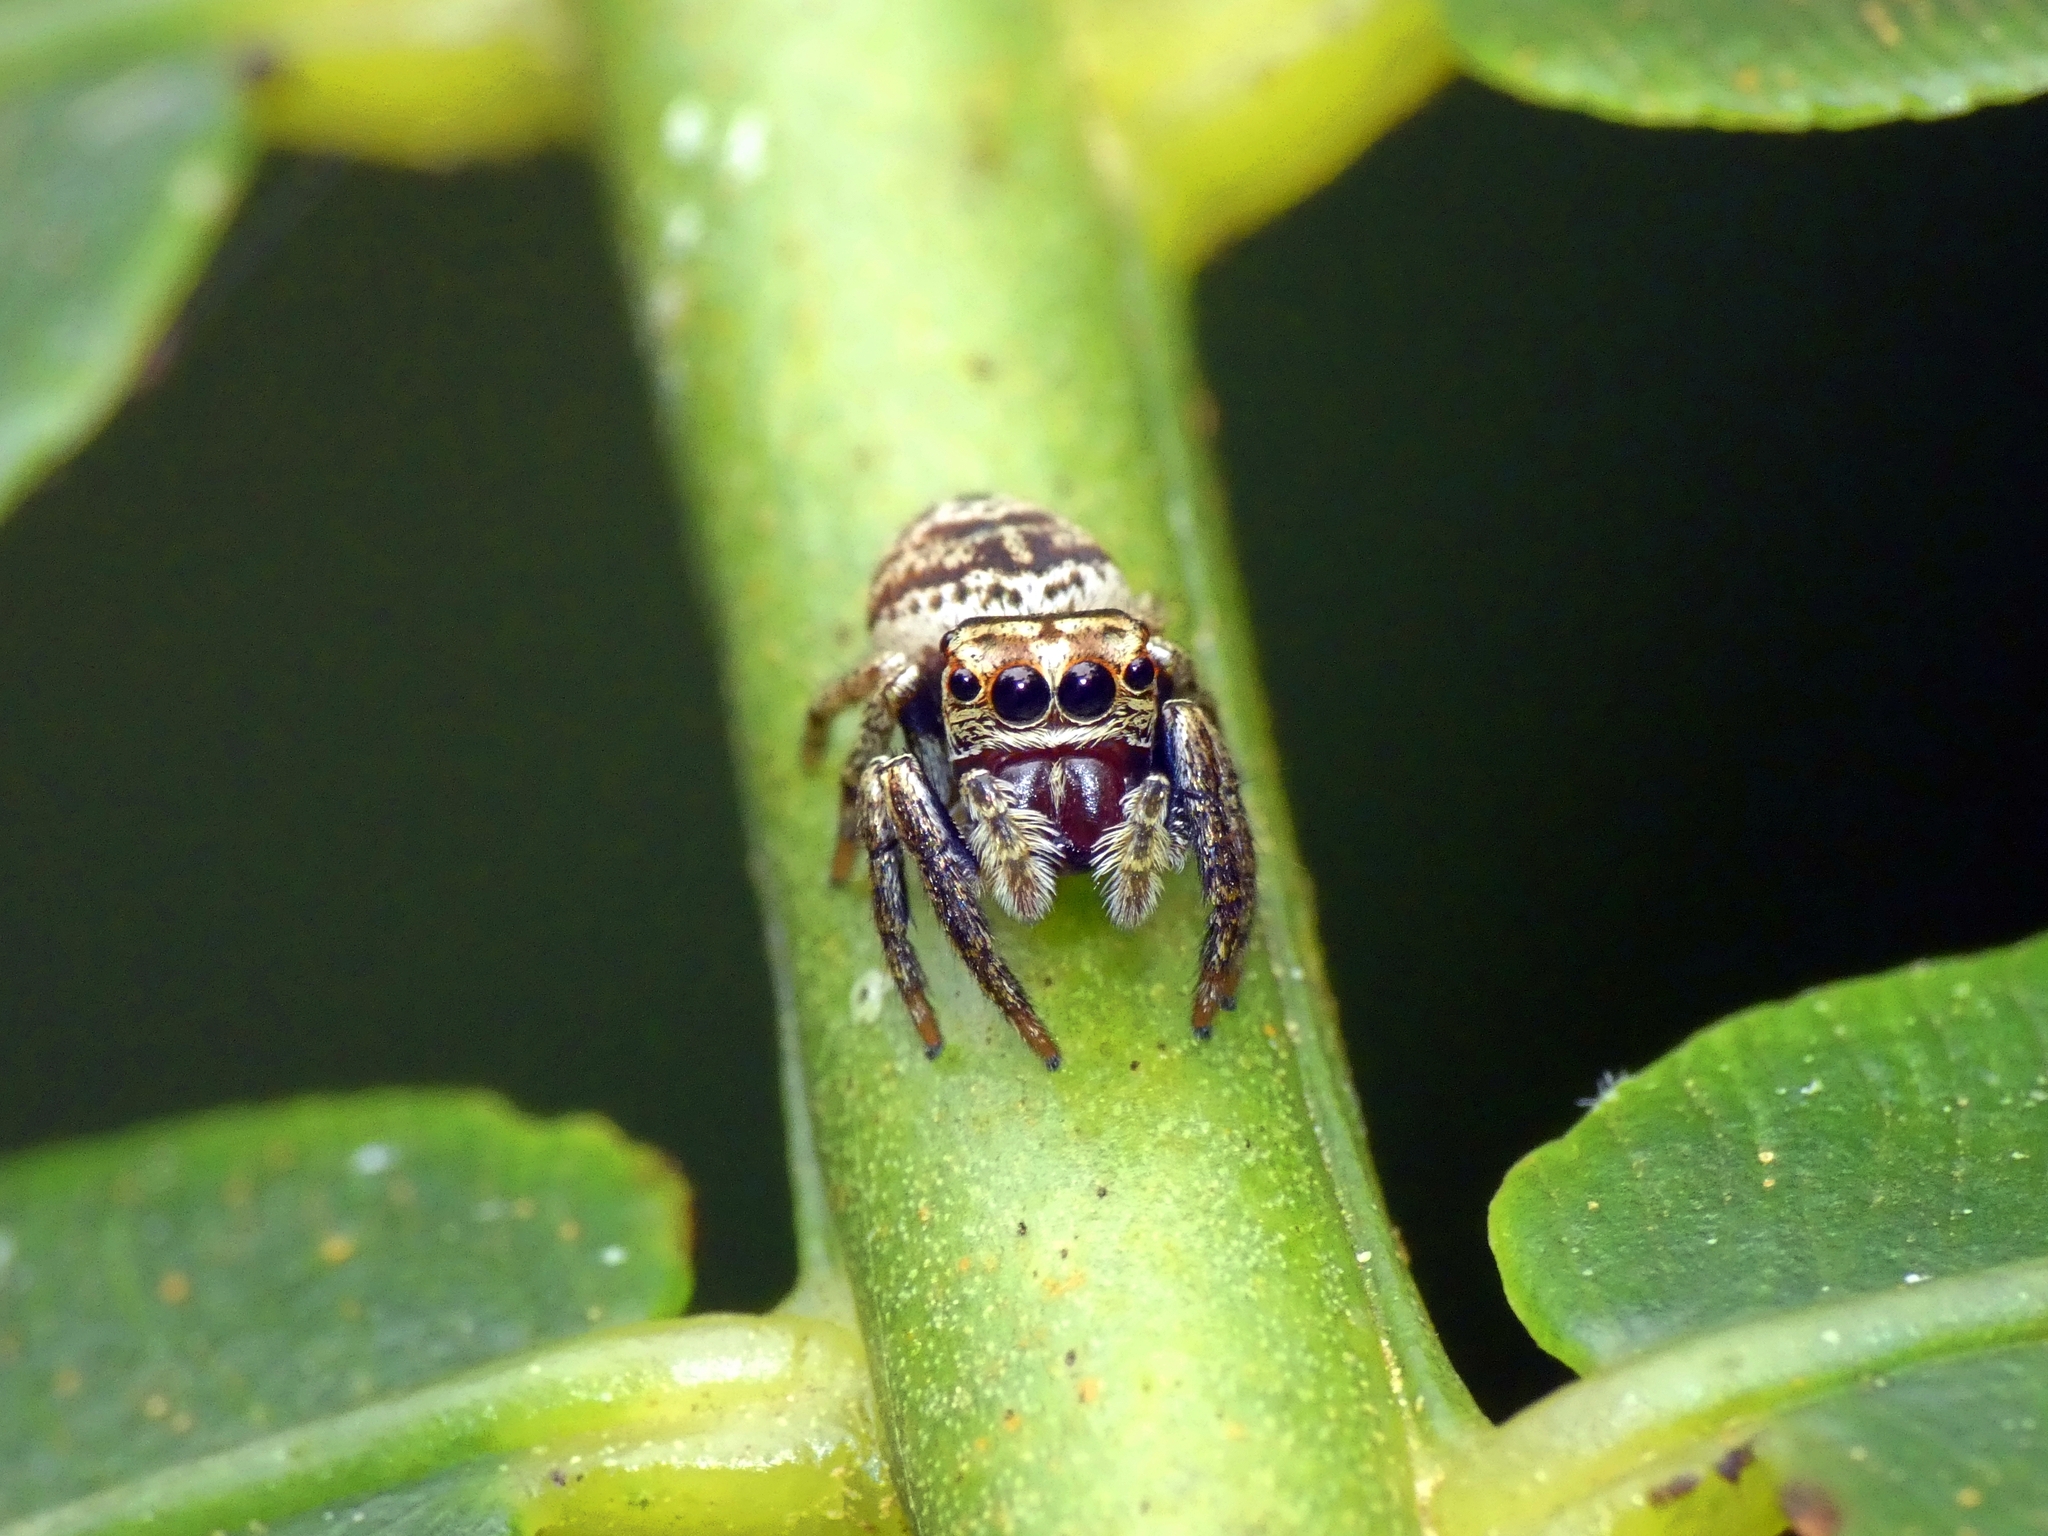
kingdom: Animalia
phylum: Arthropoda
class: Arachnida
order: Araneae
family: Salticidae
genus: Euryattus
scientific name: Euryattus bleekeri
